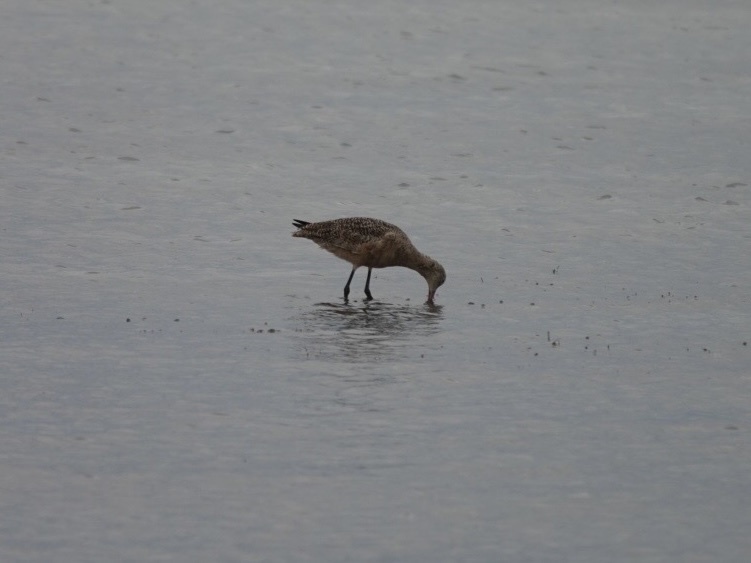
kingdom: Animalia
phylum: Chordata
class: Aves
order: Charadriiformes
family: Scolopacidae
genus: Limosa
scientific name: Limosa fedoa
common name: Marbled godwit
